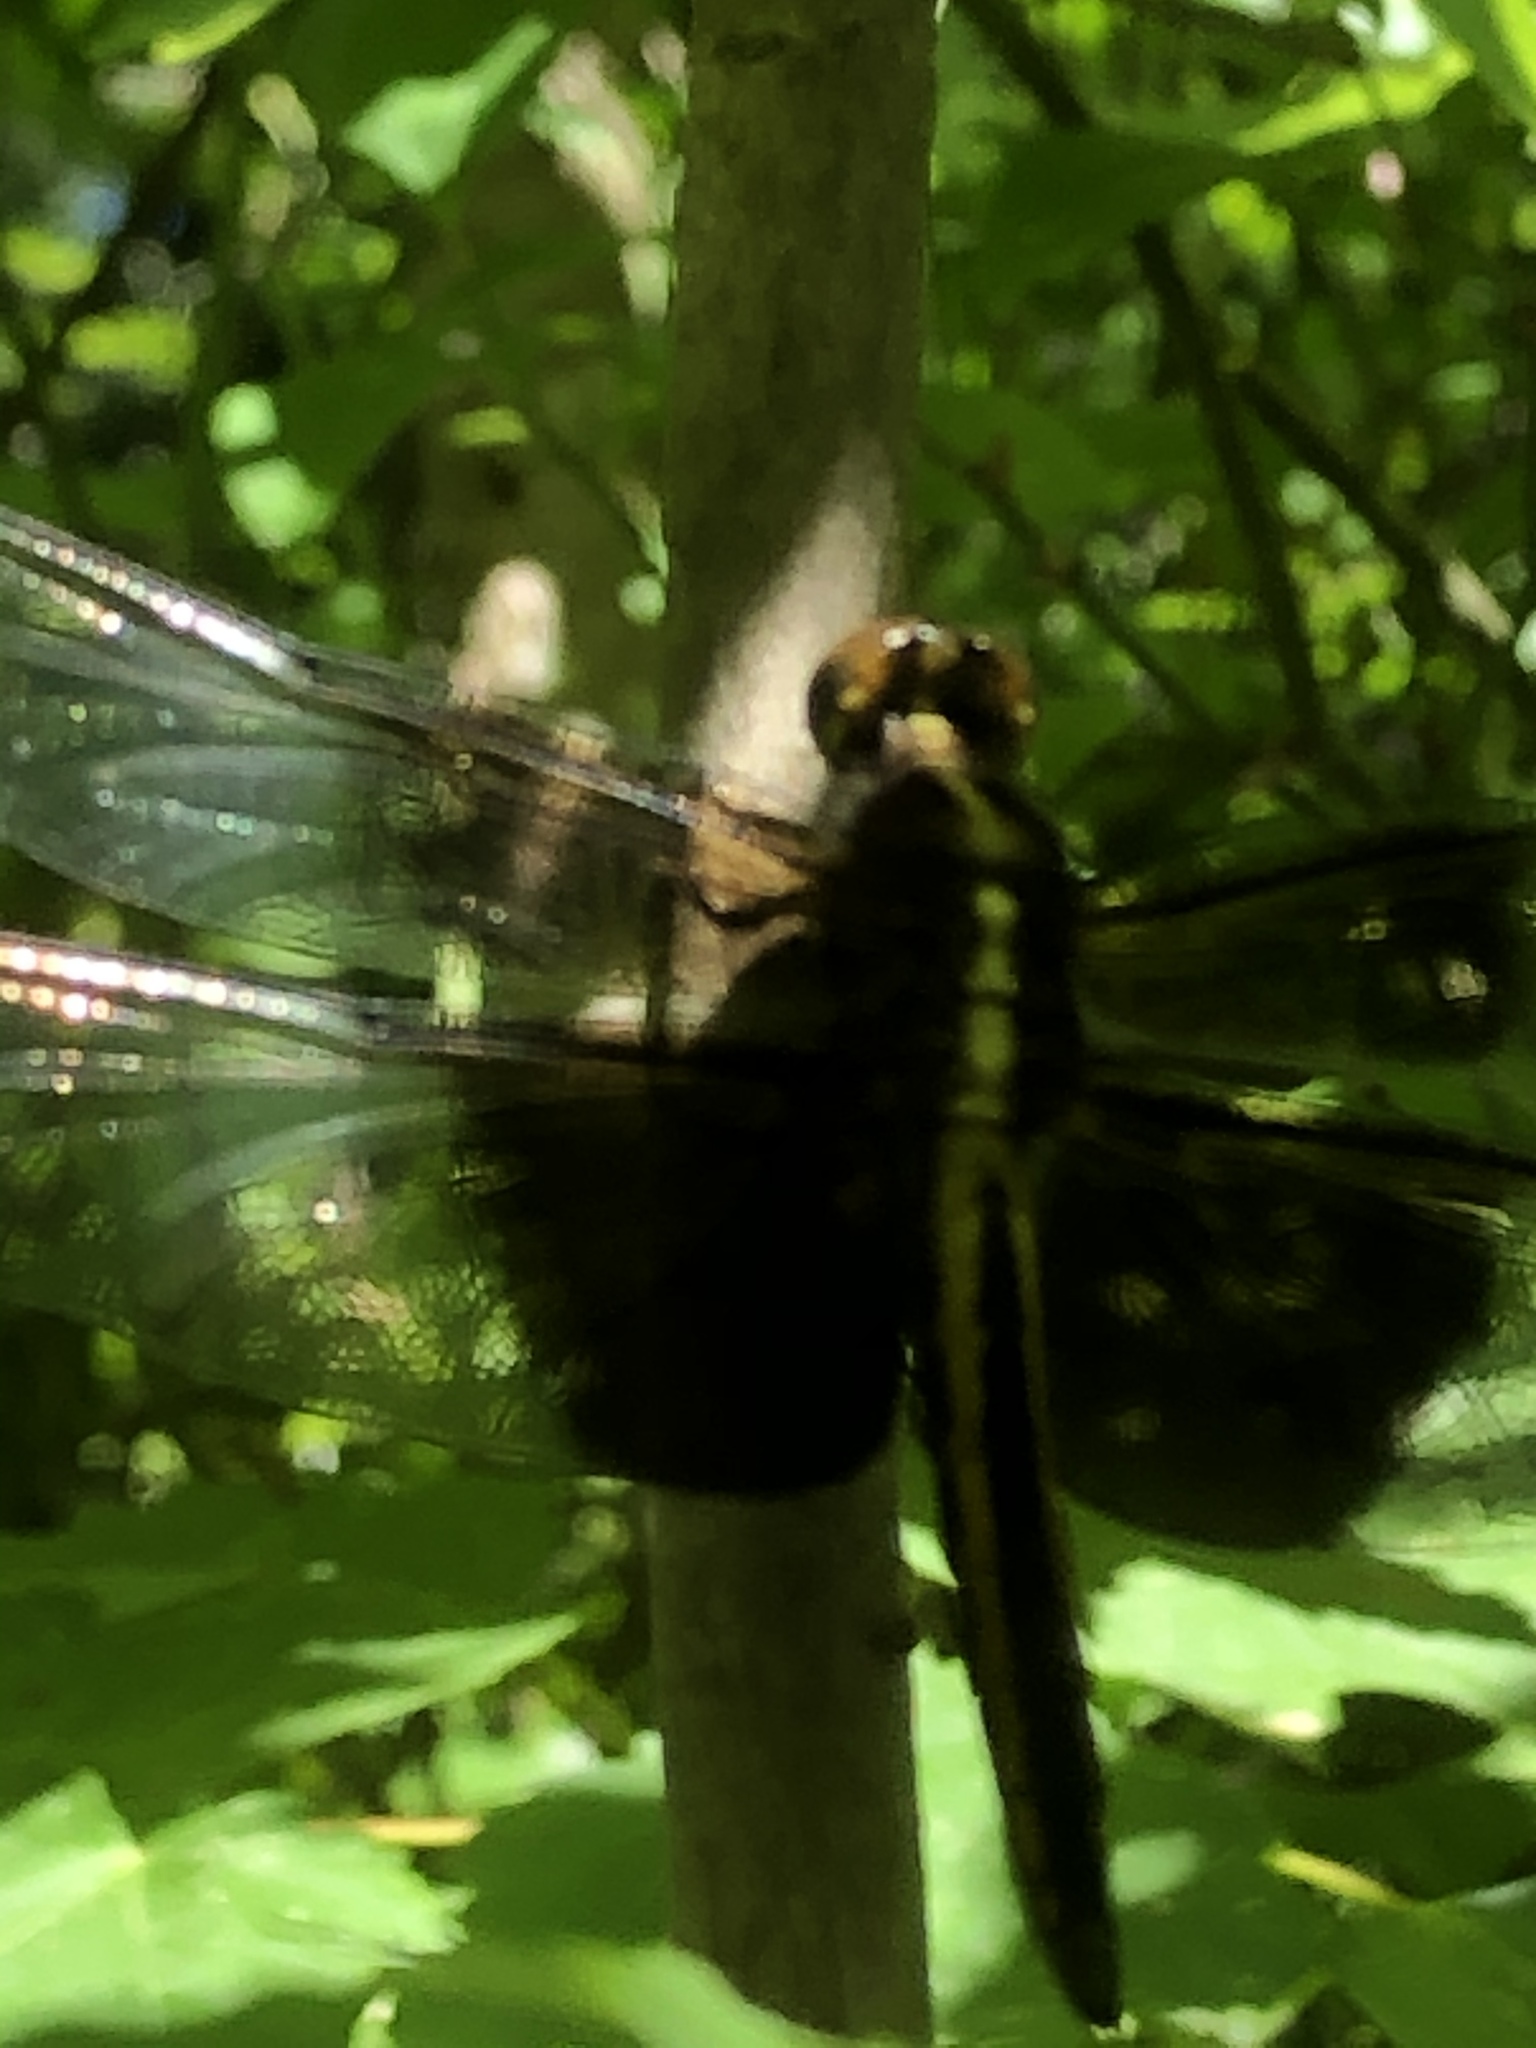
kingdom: Animalia
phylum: Arthropoda
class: Insecta
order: Odonata
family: Libellulidae
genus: Libellula
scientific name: Libellula luctuosa
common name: Widow skimmer
